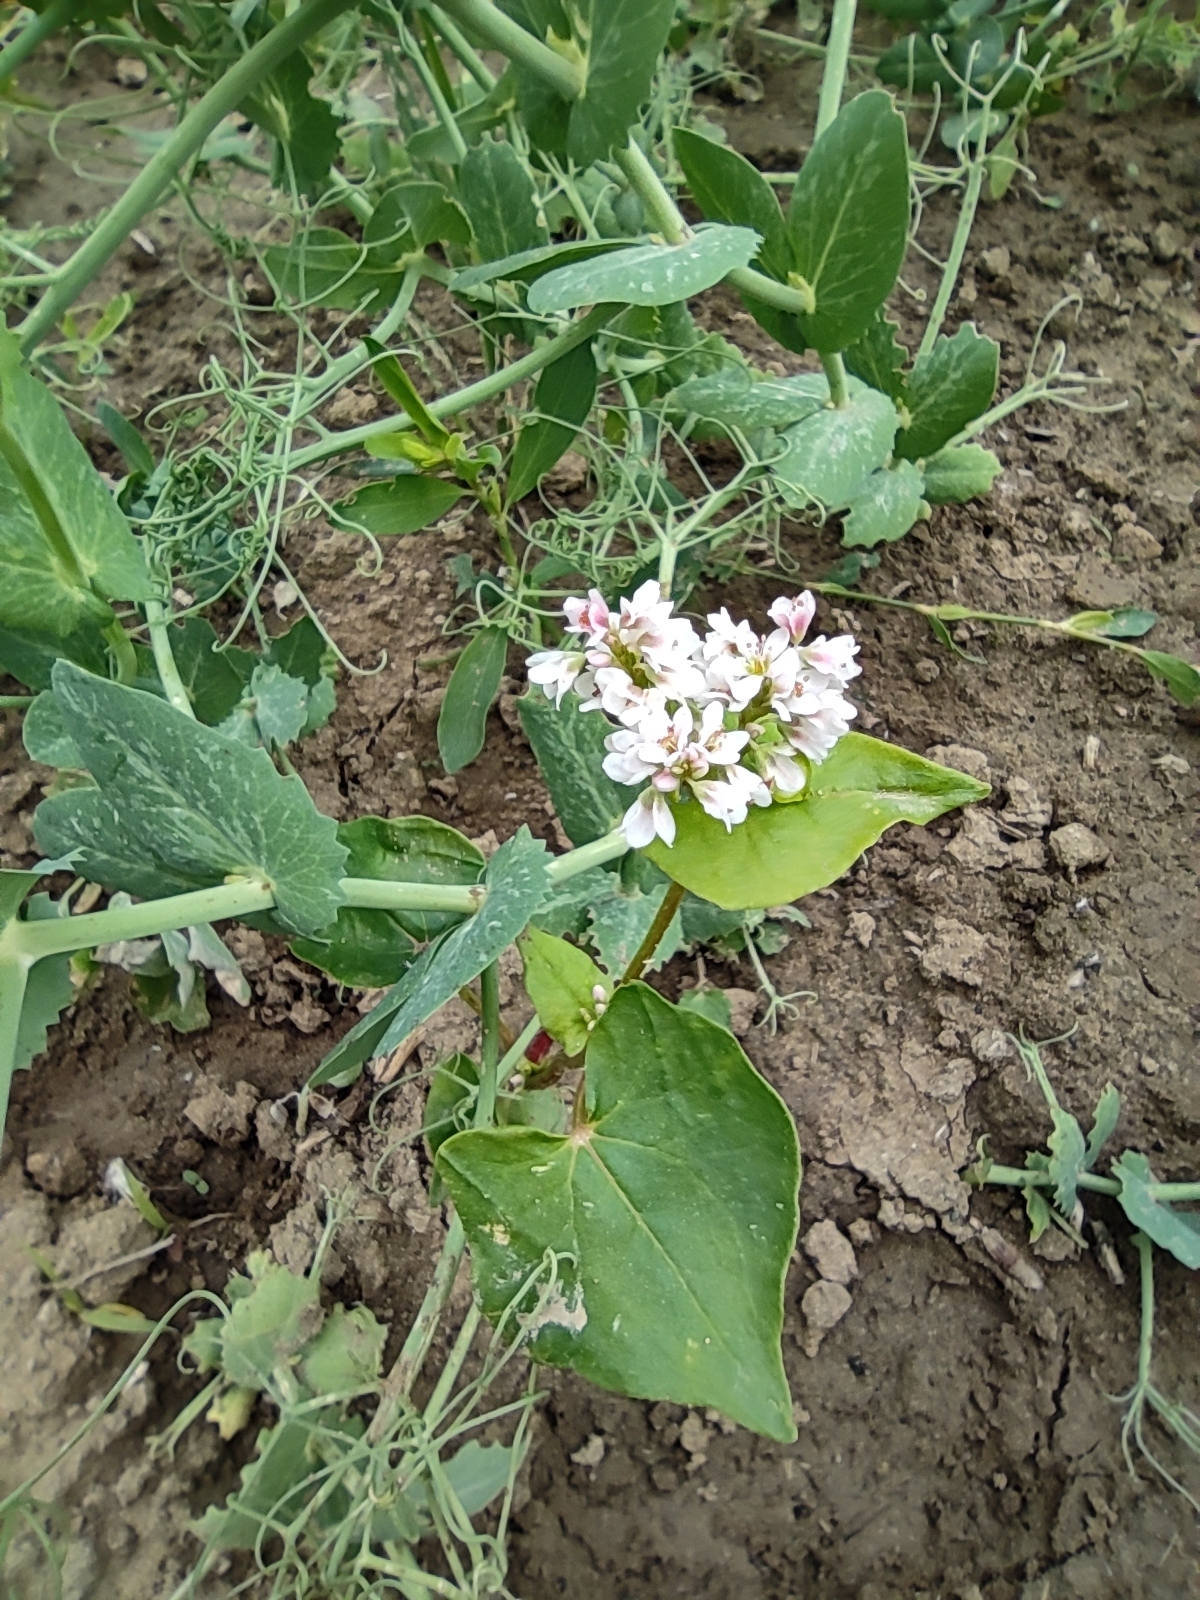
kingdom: Plantae
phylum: Tracheophyta
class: Magnoliopsida
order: Caryophyllales
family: Polygonaceae
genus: Fagopyrum
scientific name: Fagopyrum esculentum
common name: Buckwheat
